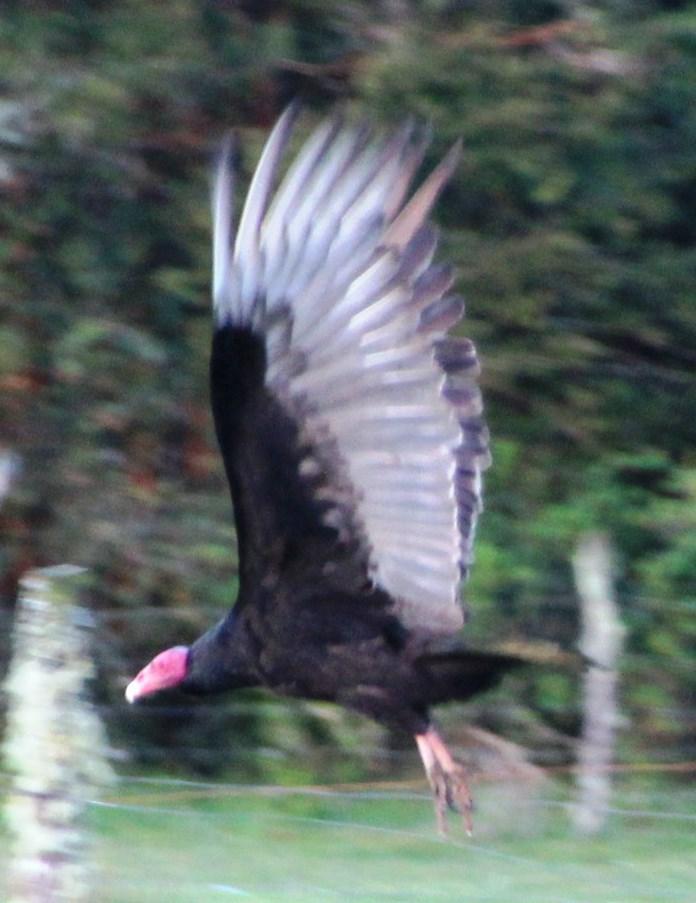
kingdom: Animalia
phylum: Chordata
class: Aves
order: Accipitriformes
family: Cathartidae
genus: Cathartes
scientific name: Cathartes aura
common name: Turkey vulture
